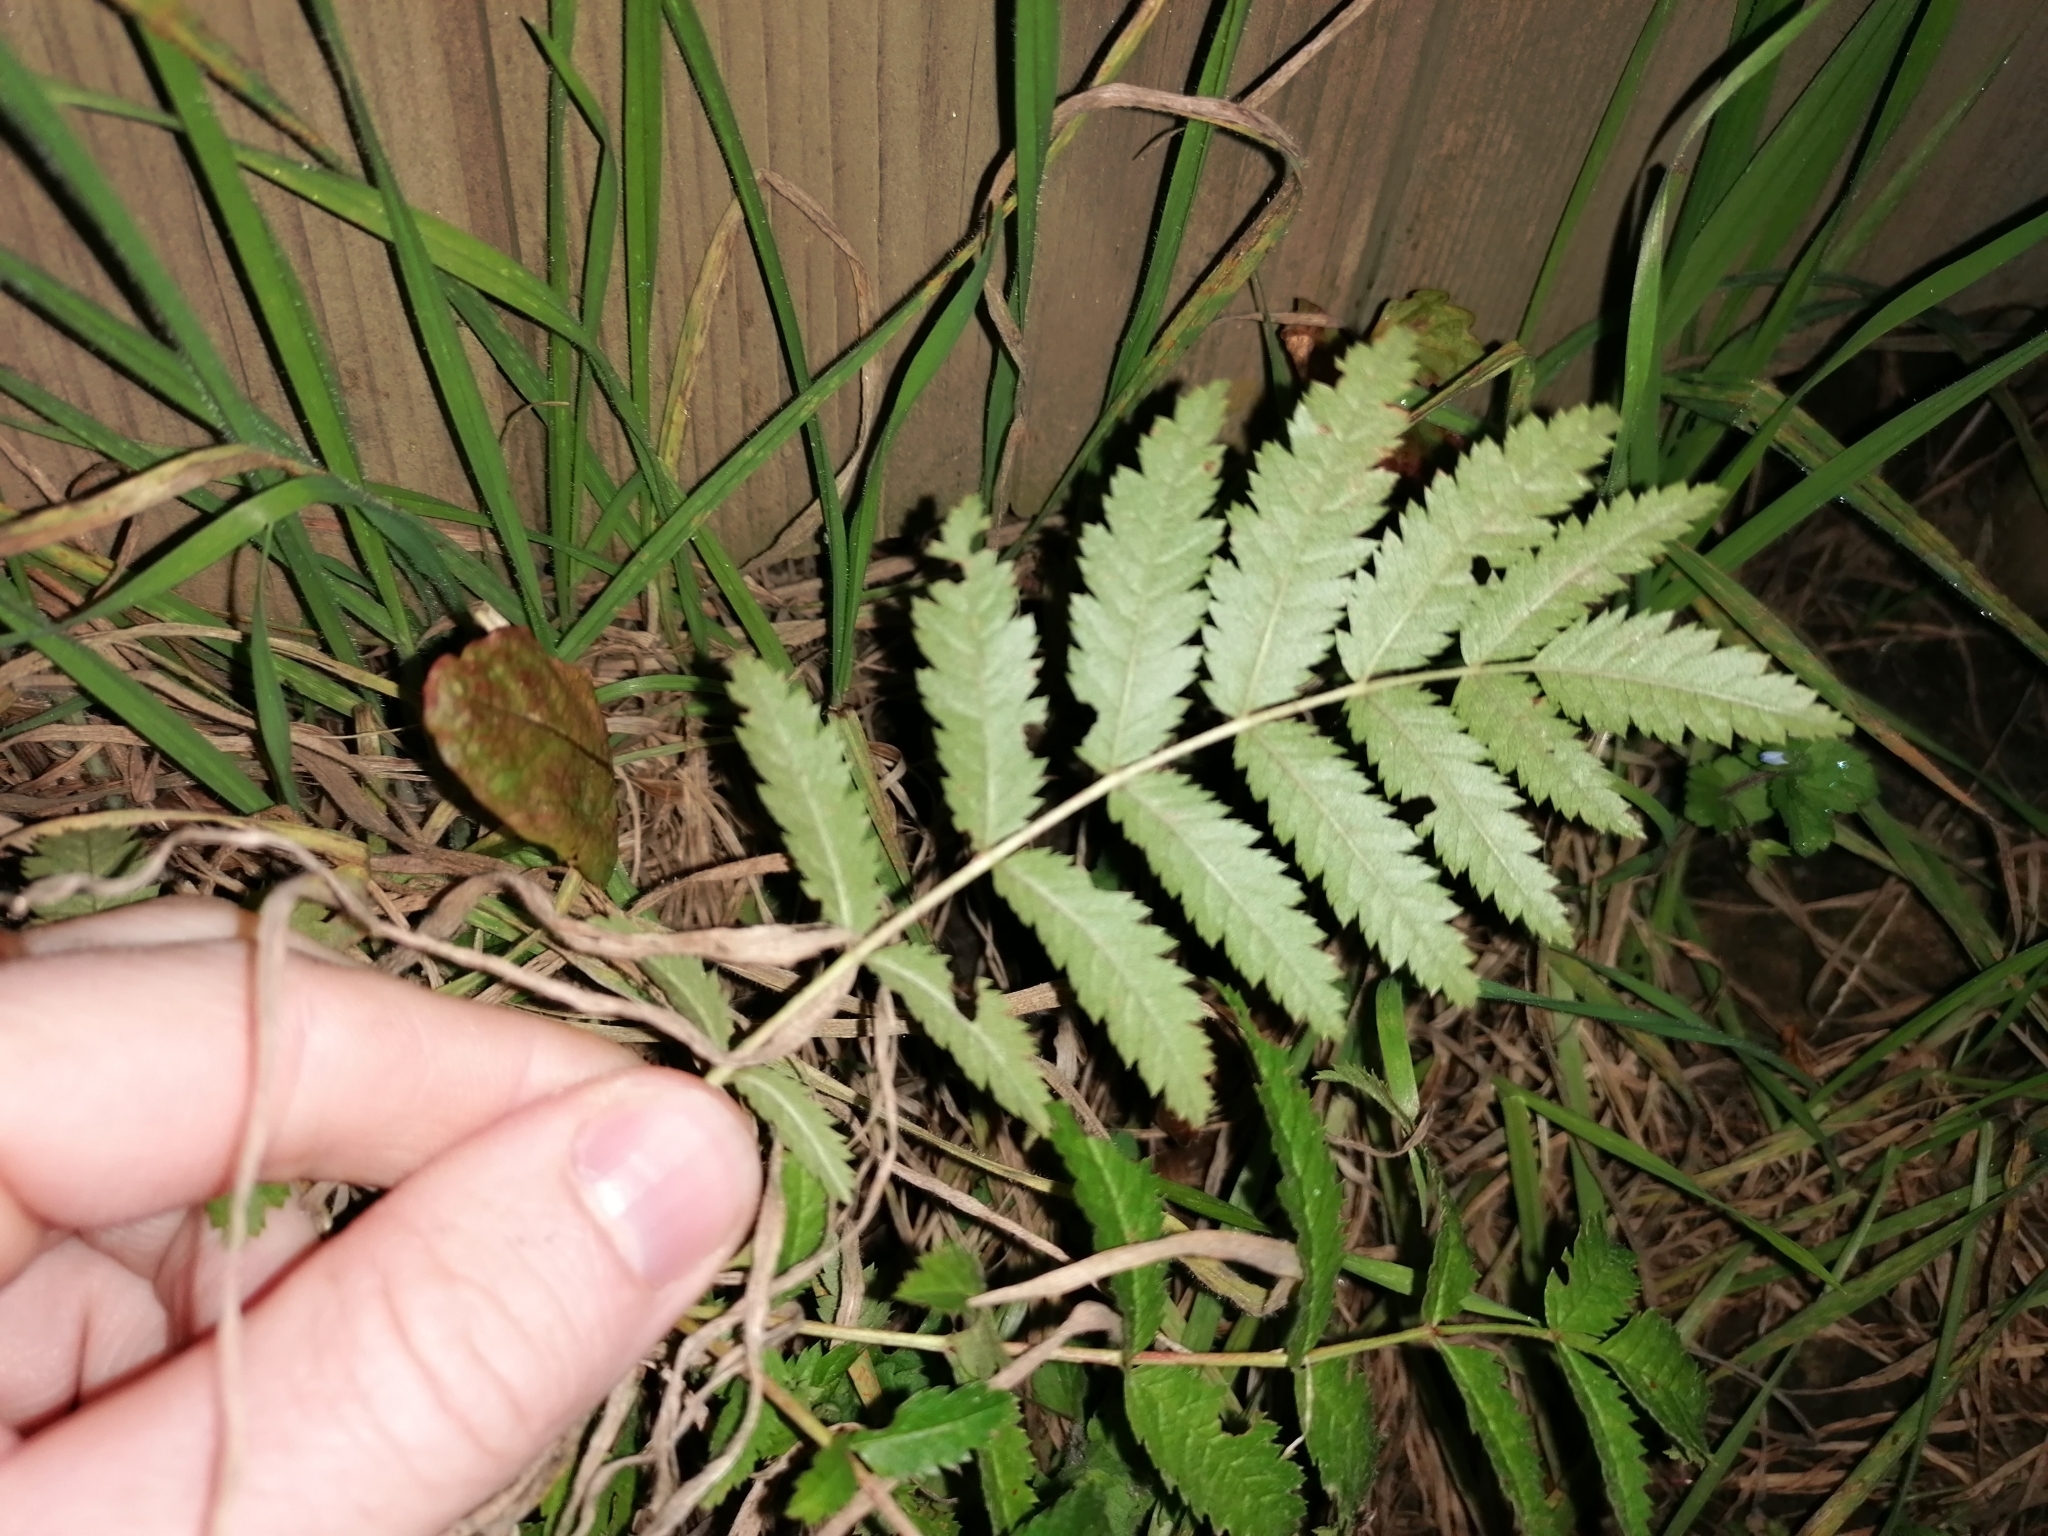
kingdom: Plantae
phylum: Tracheophyta
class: Magnoliopsida
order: Rosales
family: Rosaceae
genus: Sorbus
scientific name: Sorbus aucuparia
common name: Rowan
